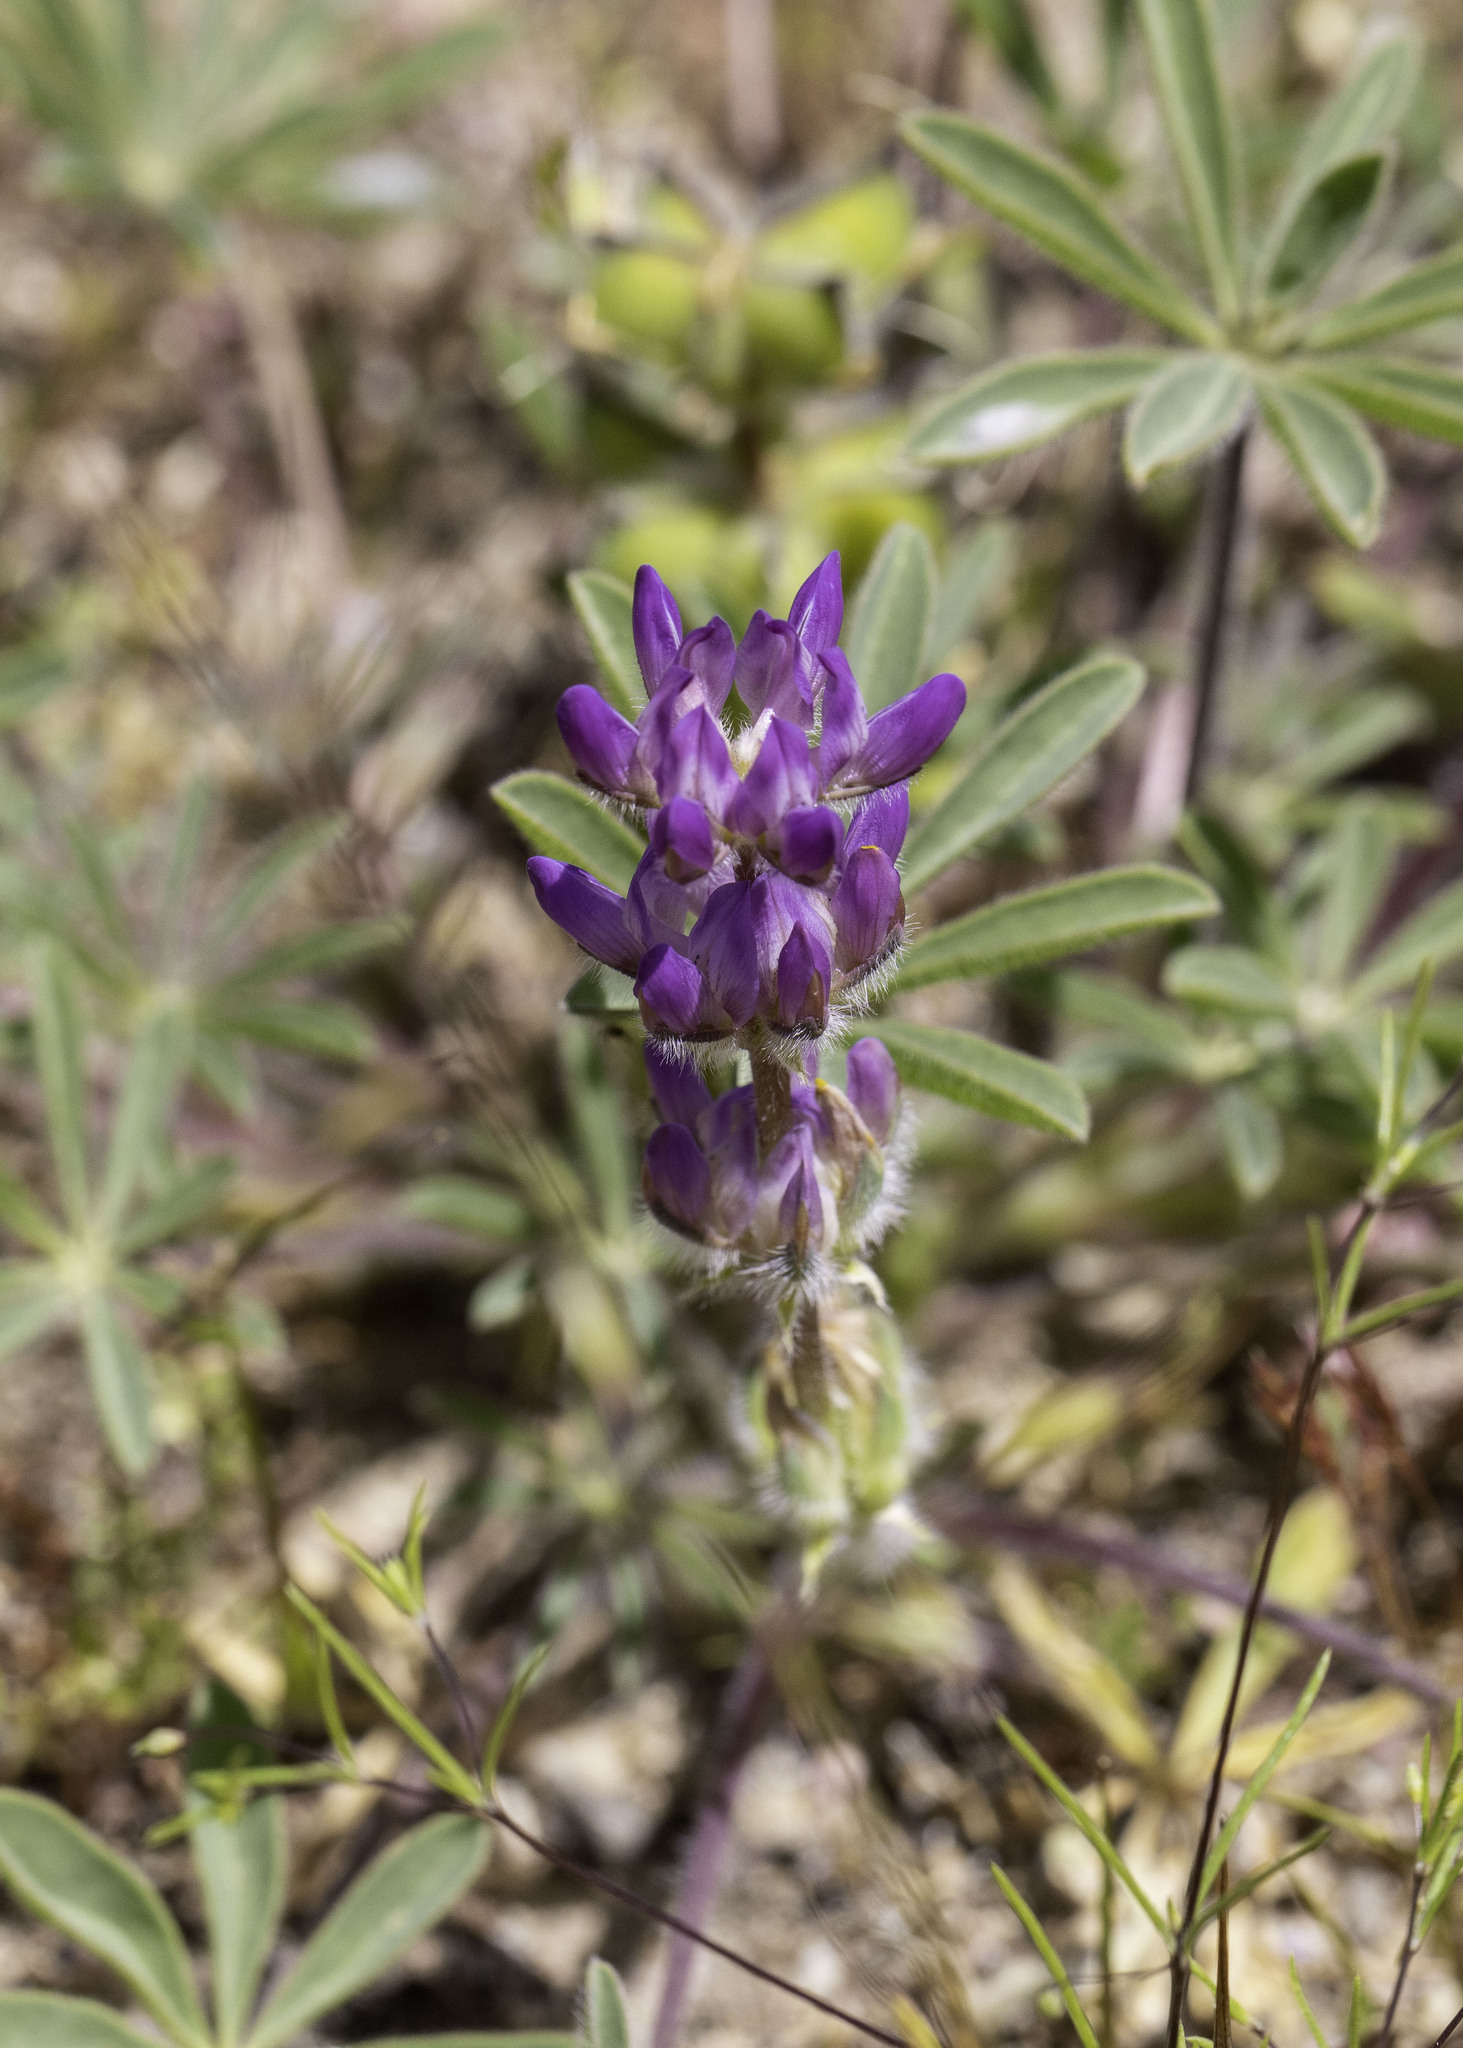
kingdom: Plantae
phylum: Tracheophyta
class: Magnoliopsida
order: Fabales
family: Fabaceae
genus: Lupinus
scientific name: Lupinus microcarpus
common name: Chick lupine
